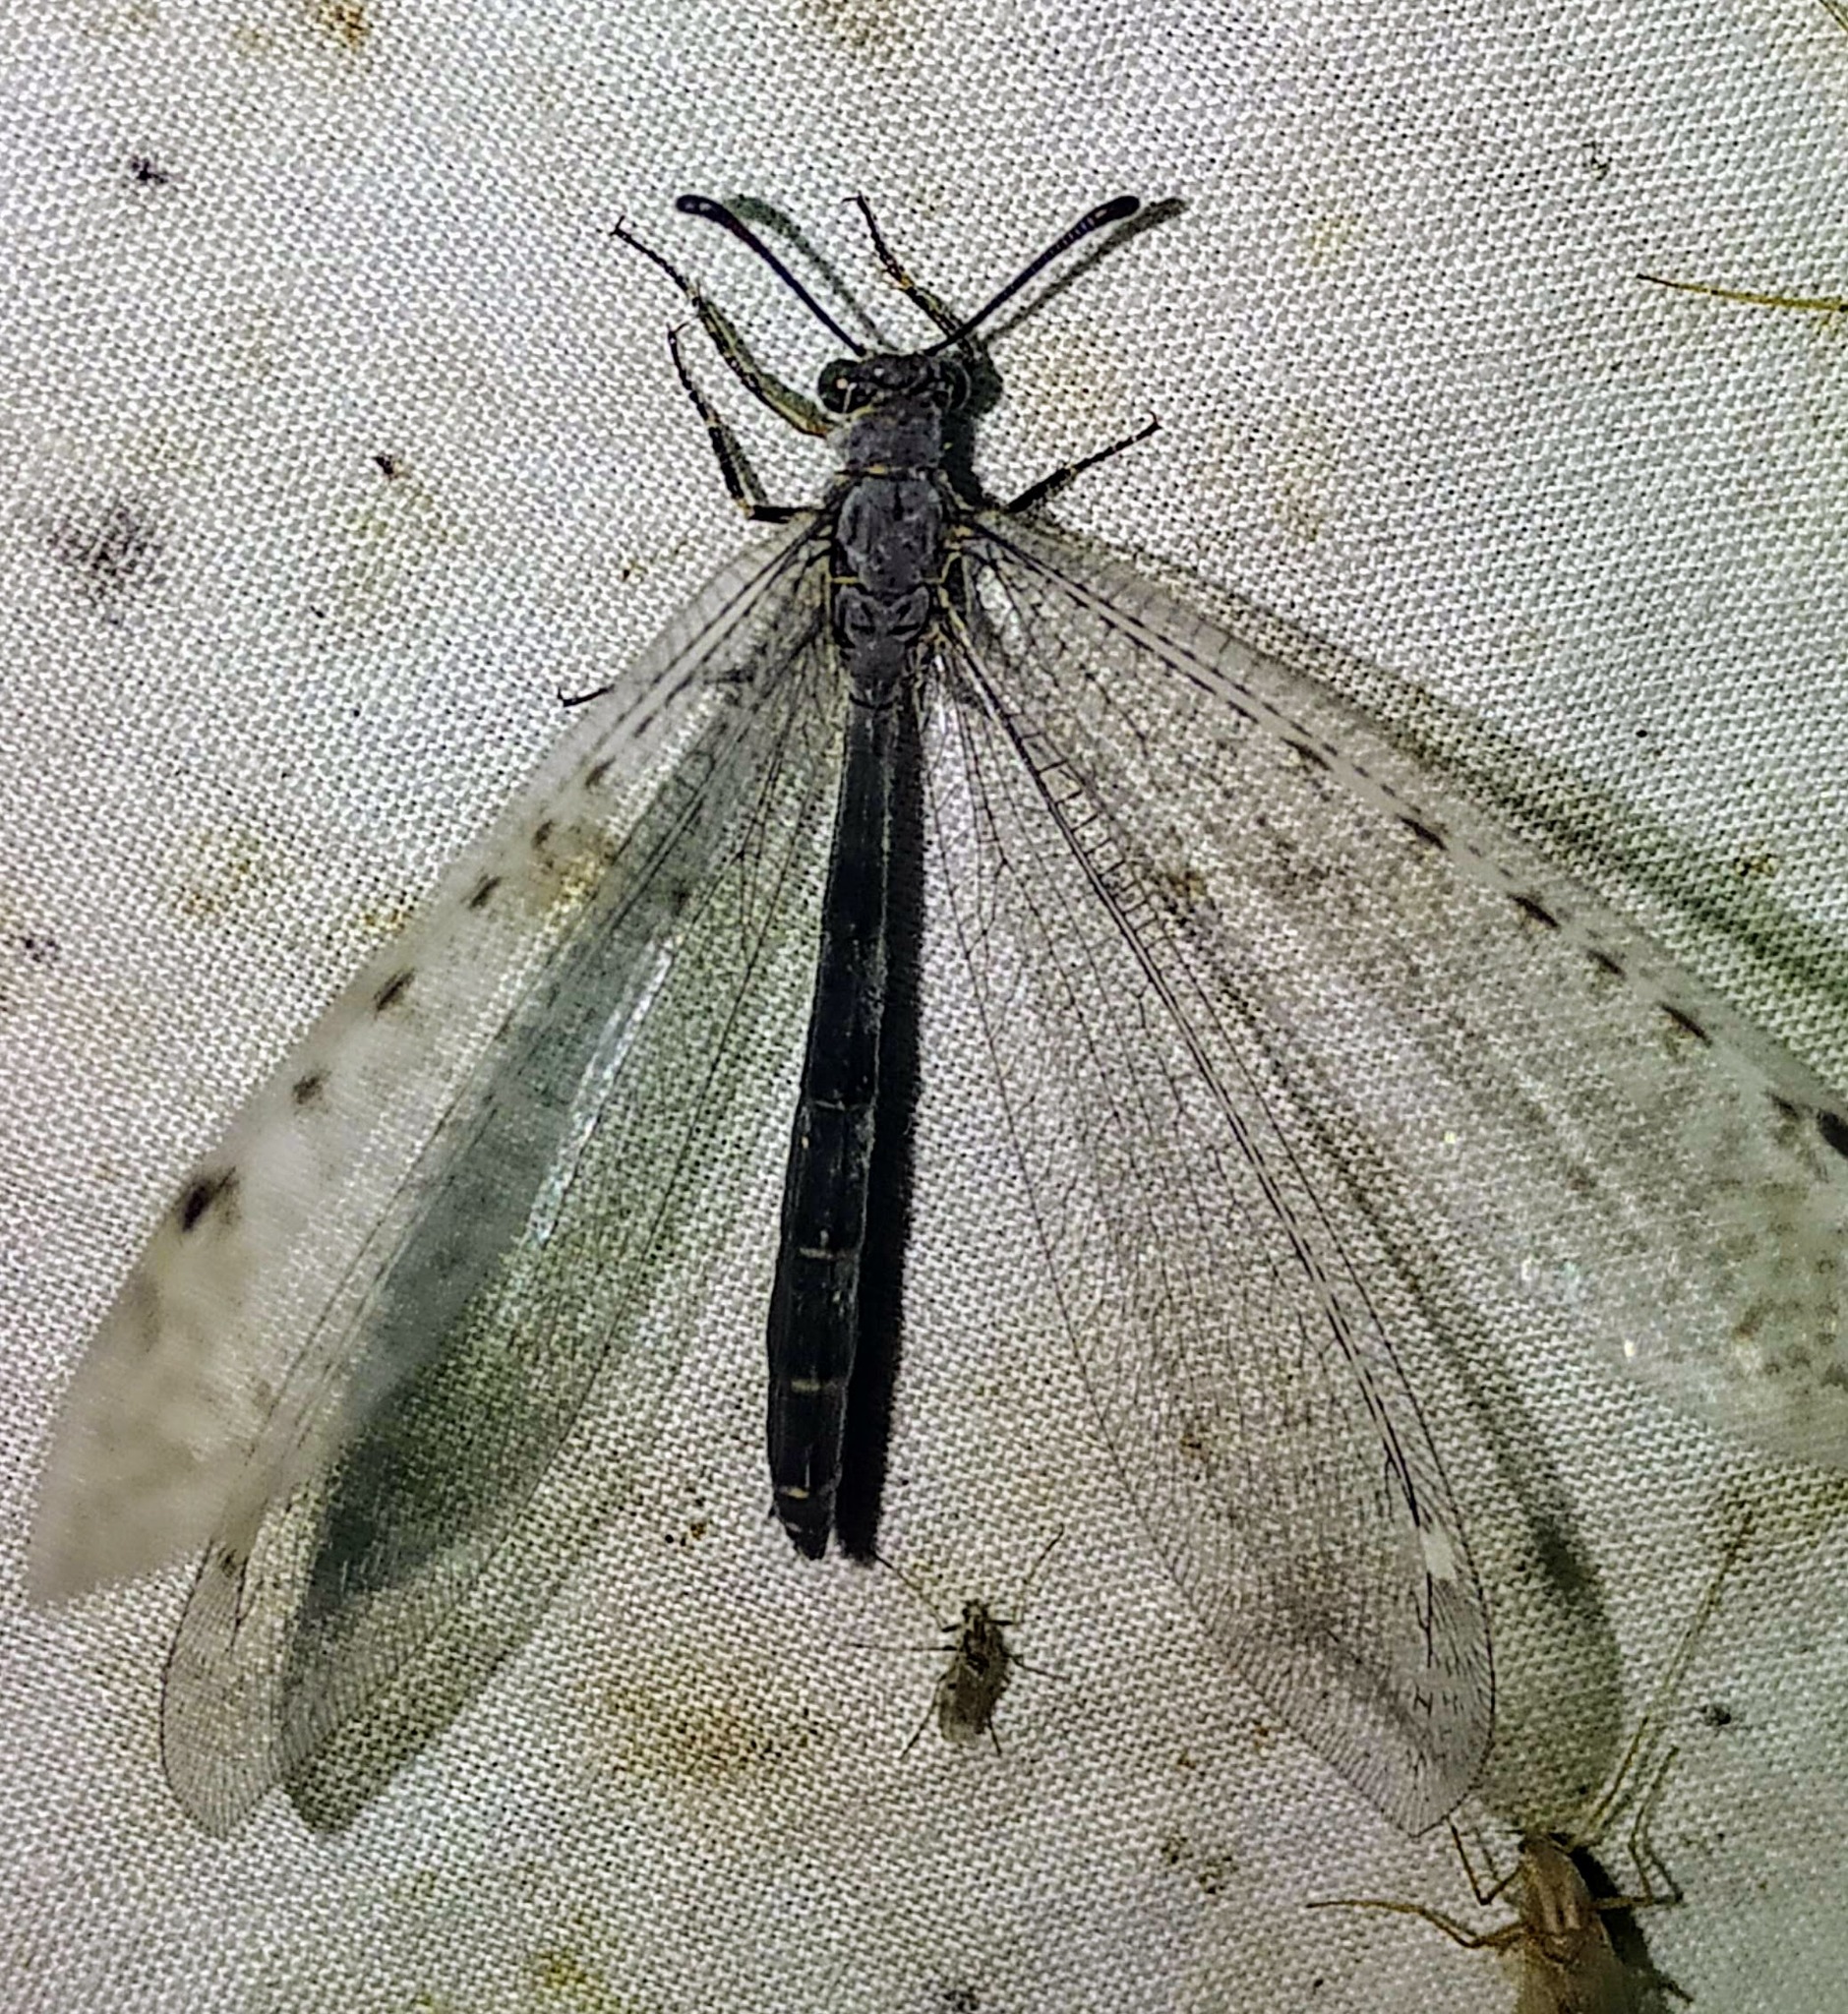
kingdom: Animalia
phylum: Arthropoda
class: Insecta
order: Neuroptera
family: Myrmeleontidae
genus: Myrmeleon
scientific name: Myrmeleon exitialis
